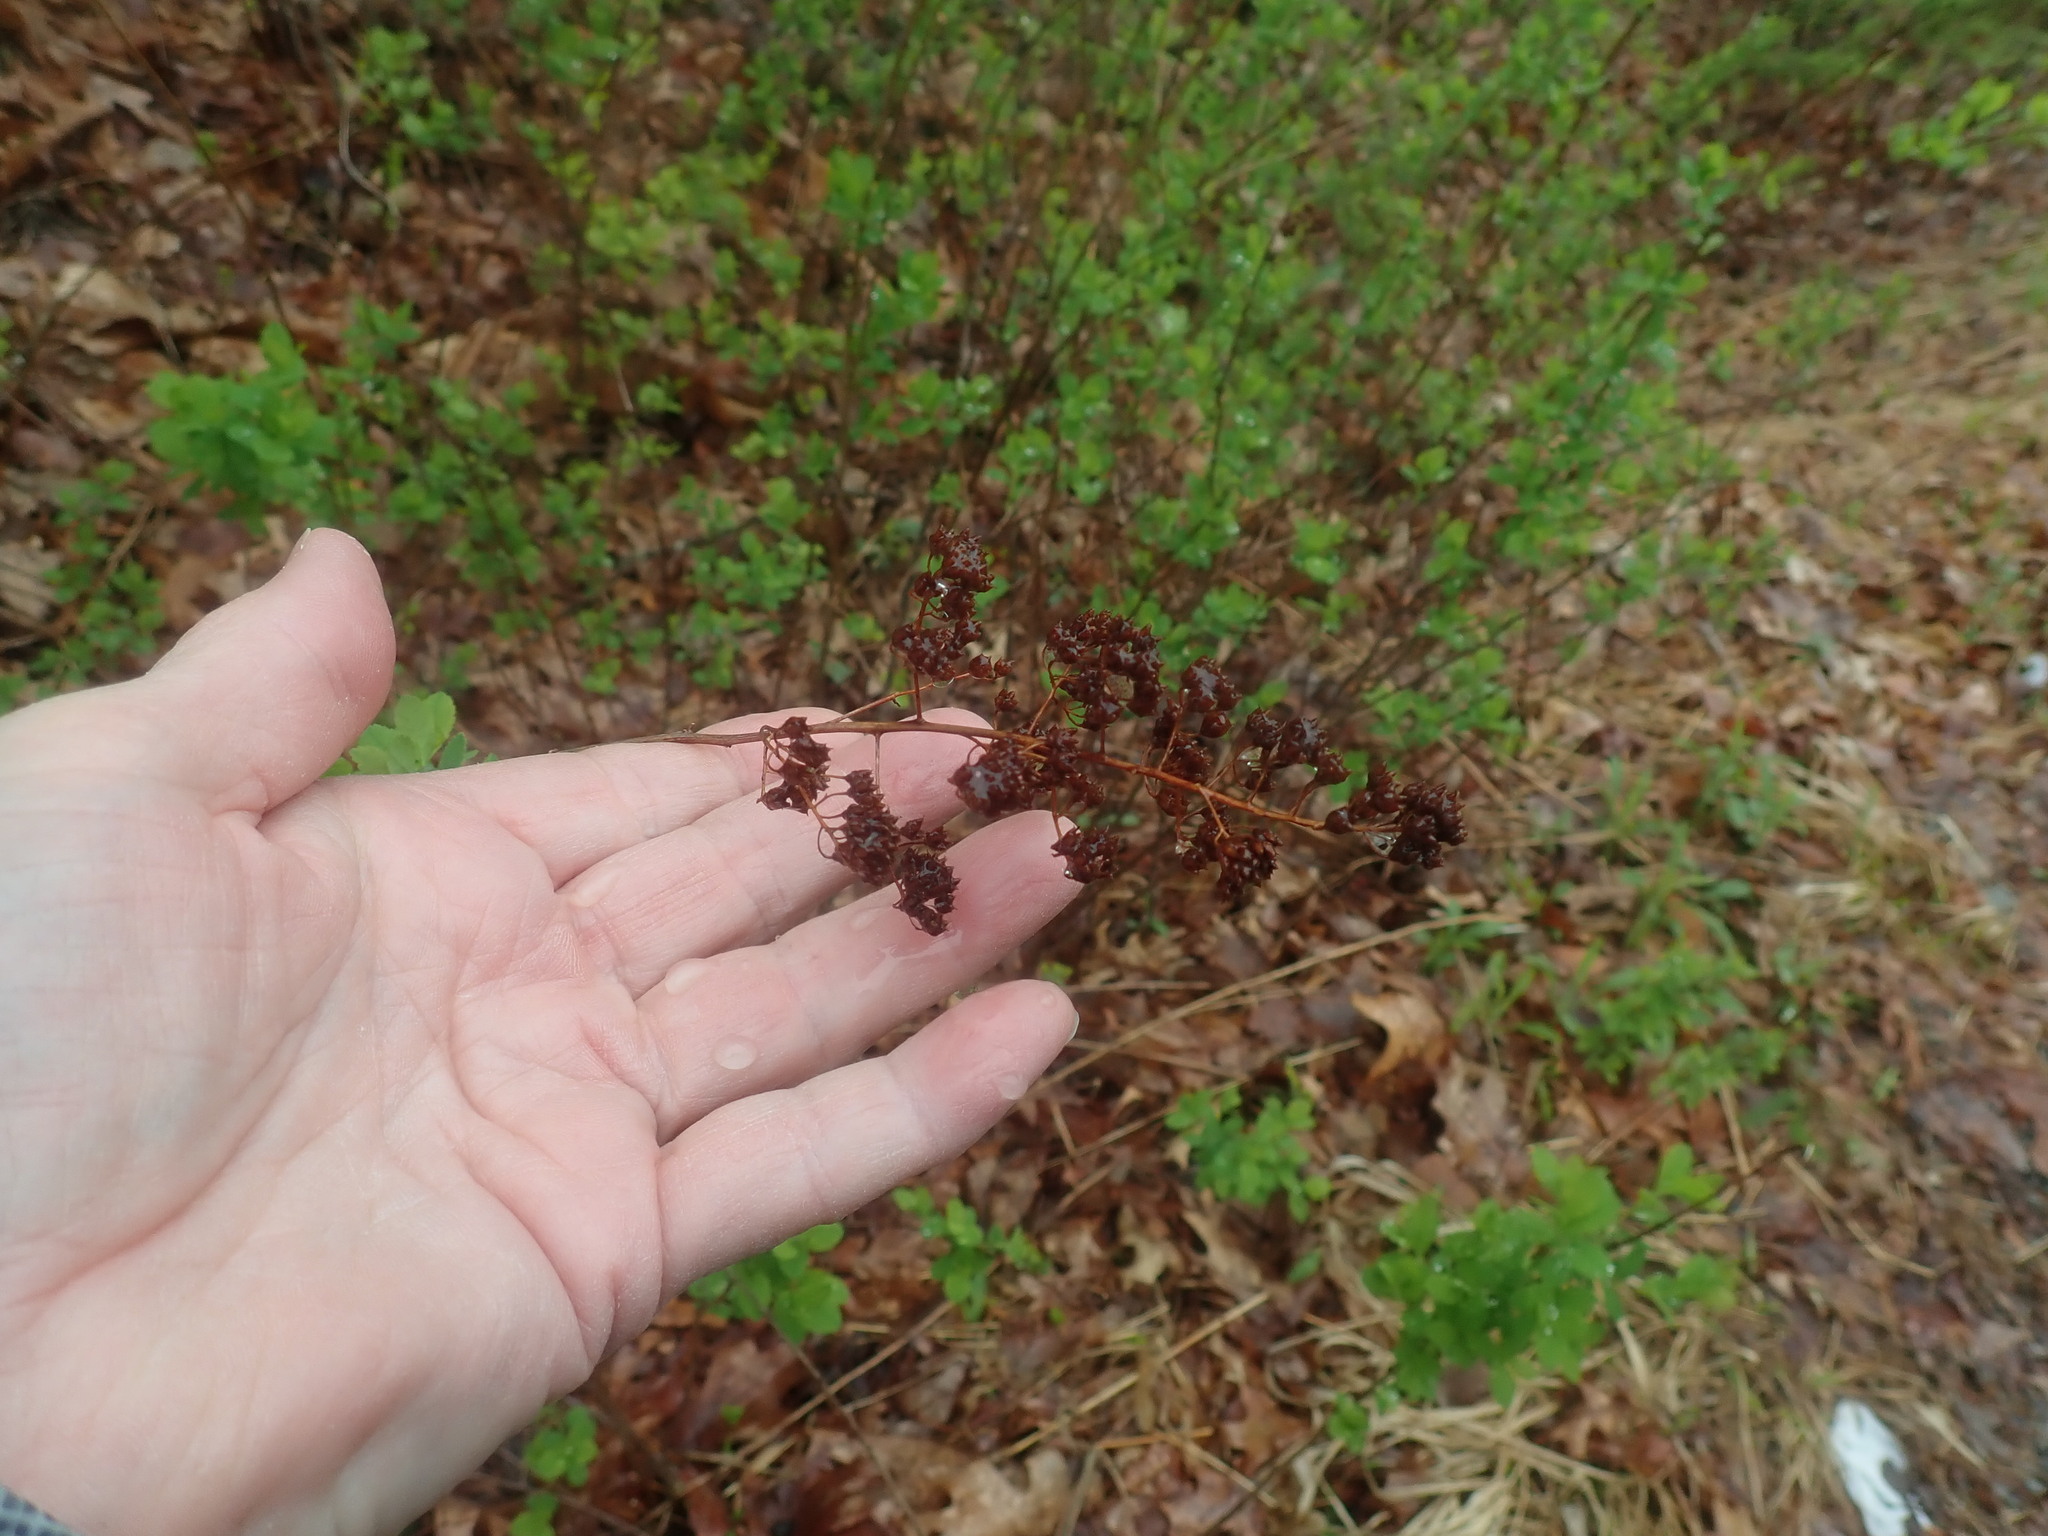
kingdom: Plantae
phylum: Tracheophyta
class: Magnoliopsida
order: Rosales
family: Rosaceae
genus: Spiraea
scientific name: Spiraea alba
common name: Pale bridewort
